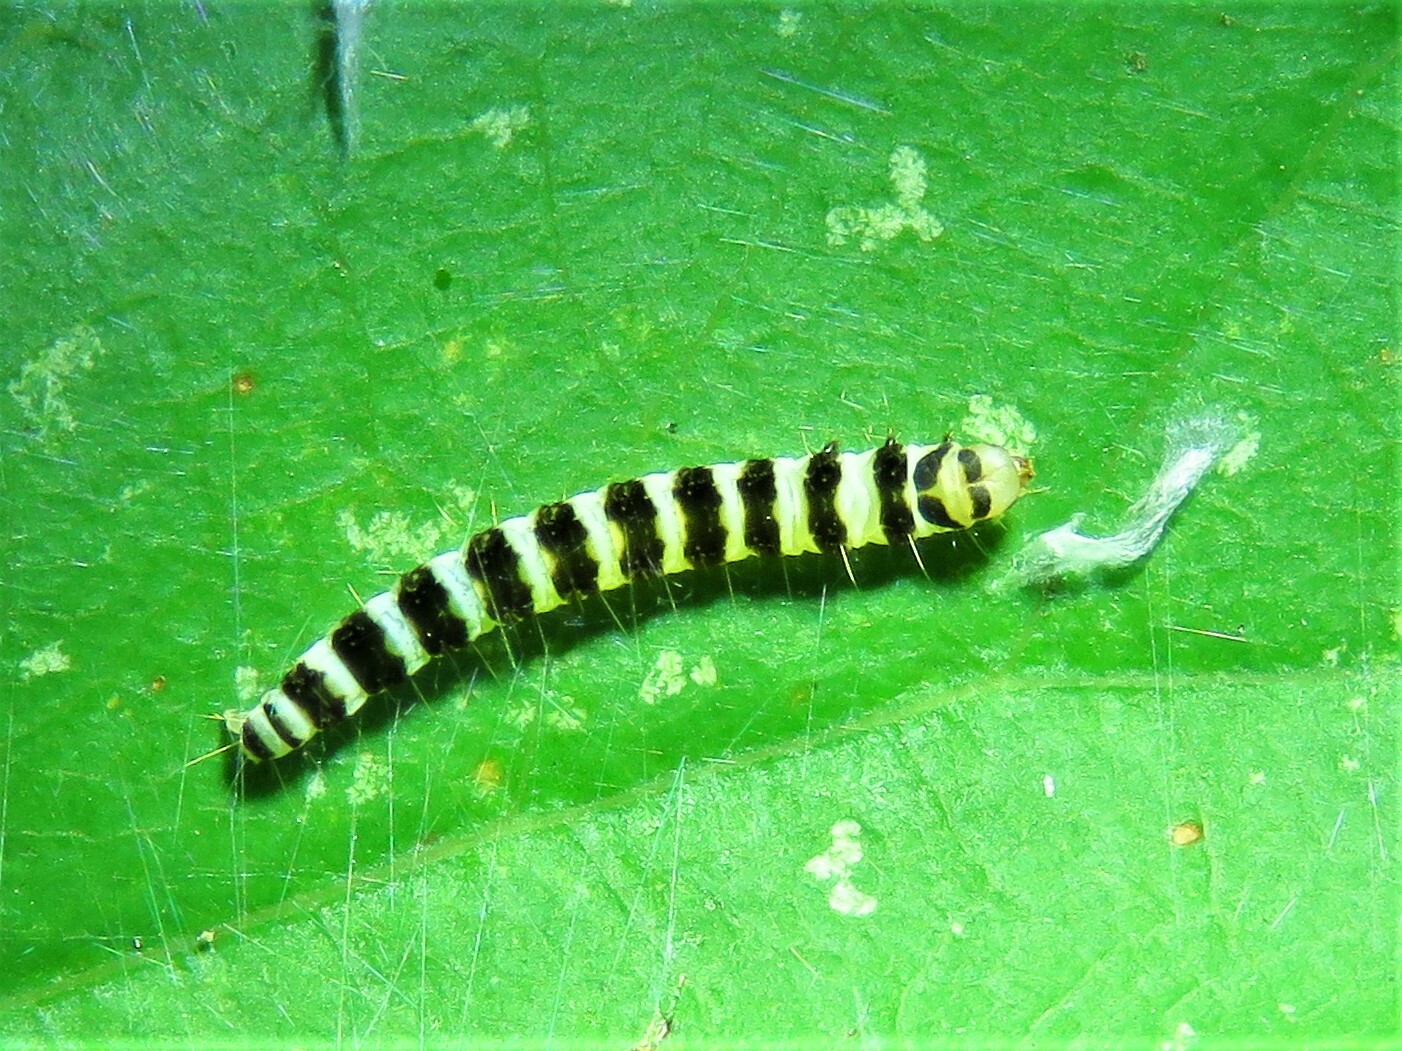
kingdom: Animalia
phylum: Arthropoda
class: Insecta
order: Lepidoptera
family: Gelechiidae
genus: Fascista
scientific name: Fascista cercerisella
